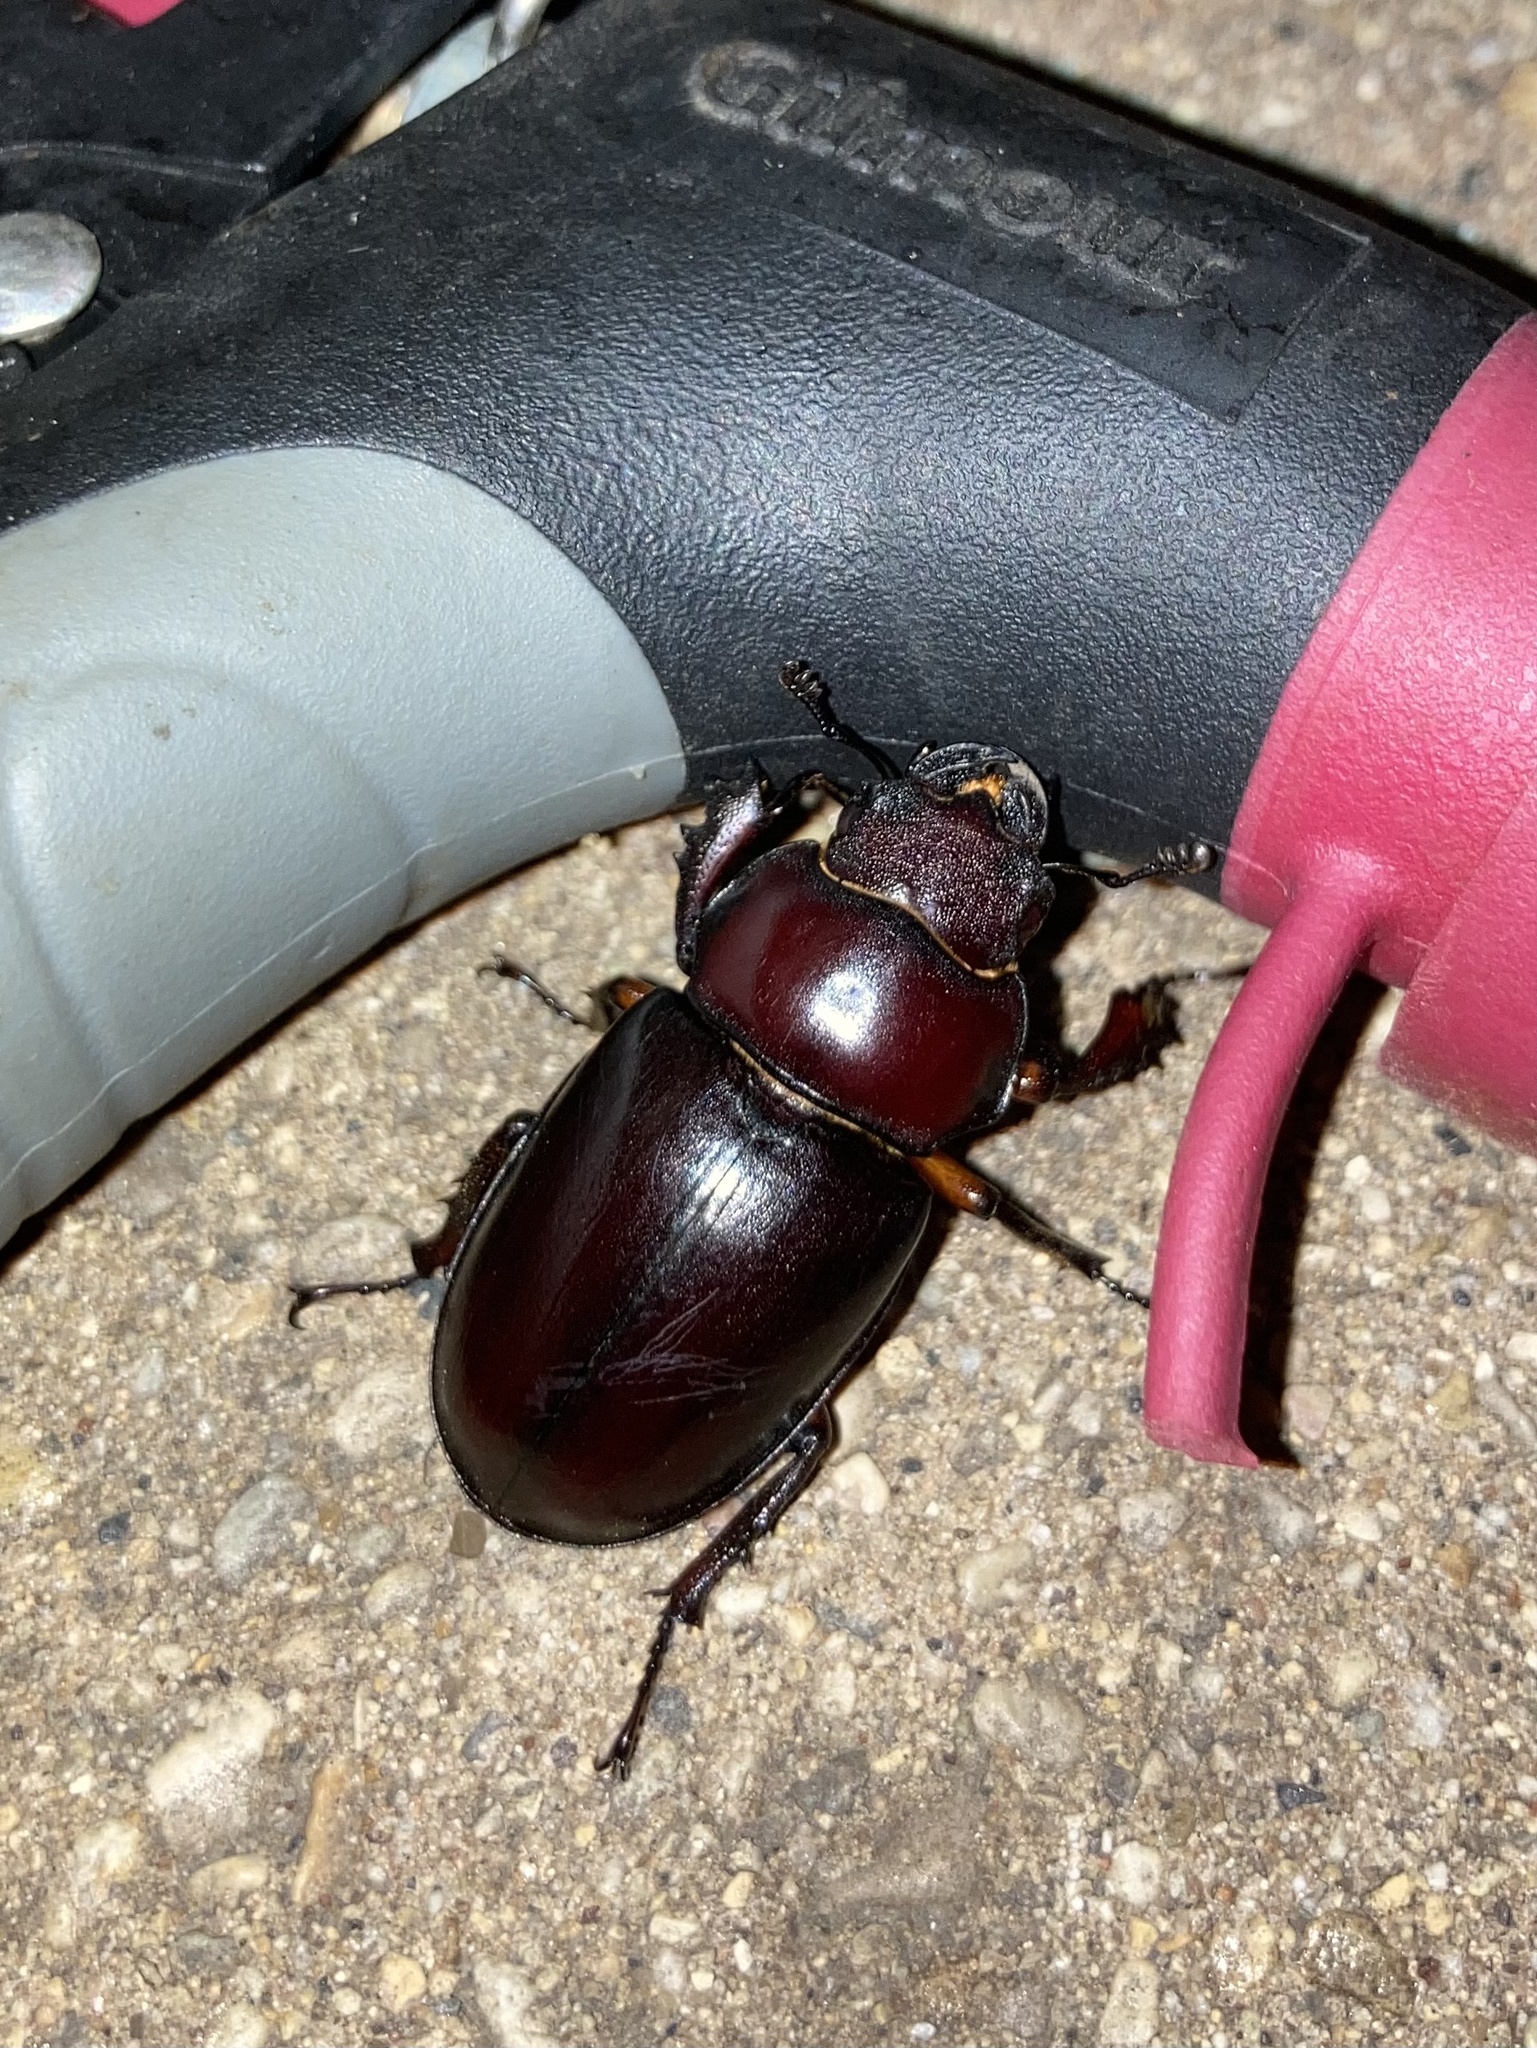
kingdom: Animalia
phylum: Arthropoda
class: Insecta
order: Coleoptera
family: Lucanidae
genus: Lucanus
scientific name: Lucanus capreolus
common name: Stag beetle
